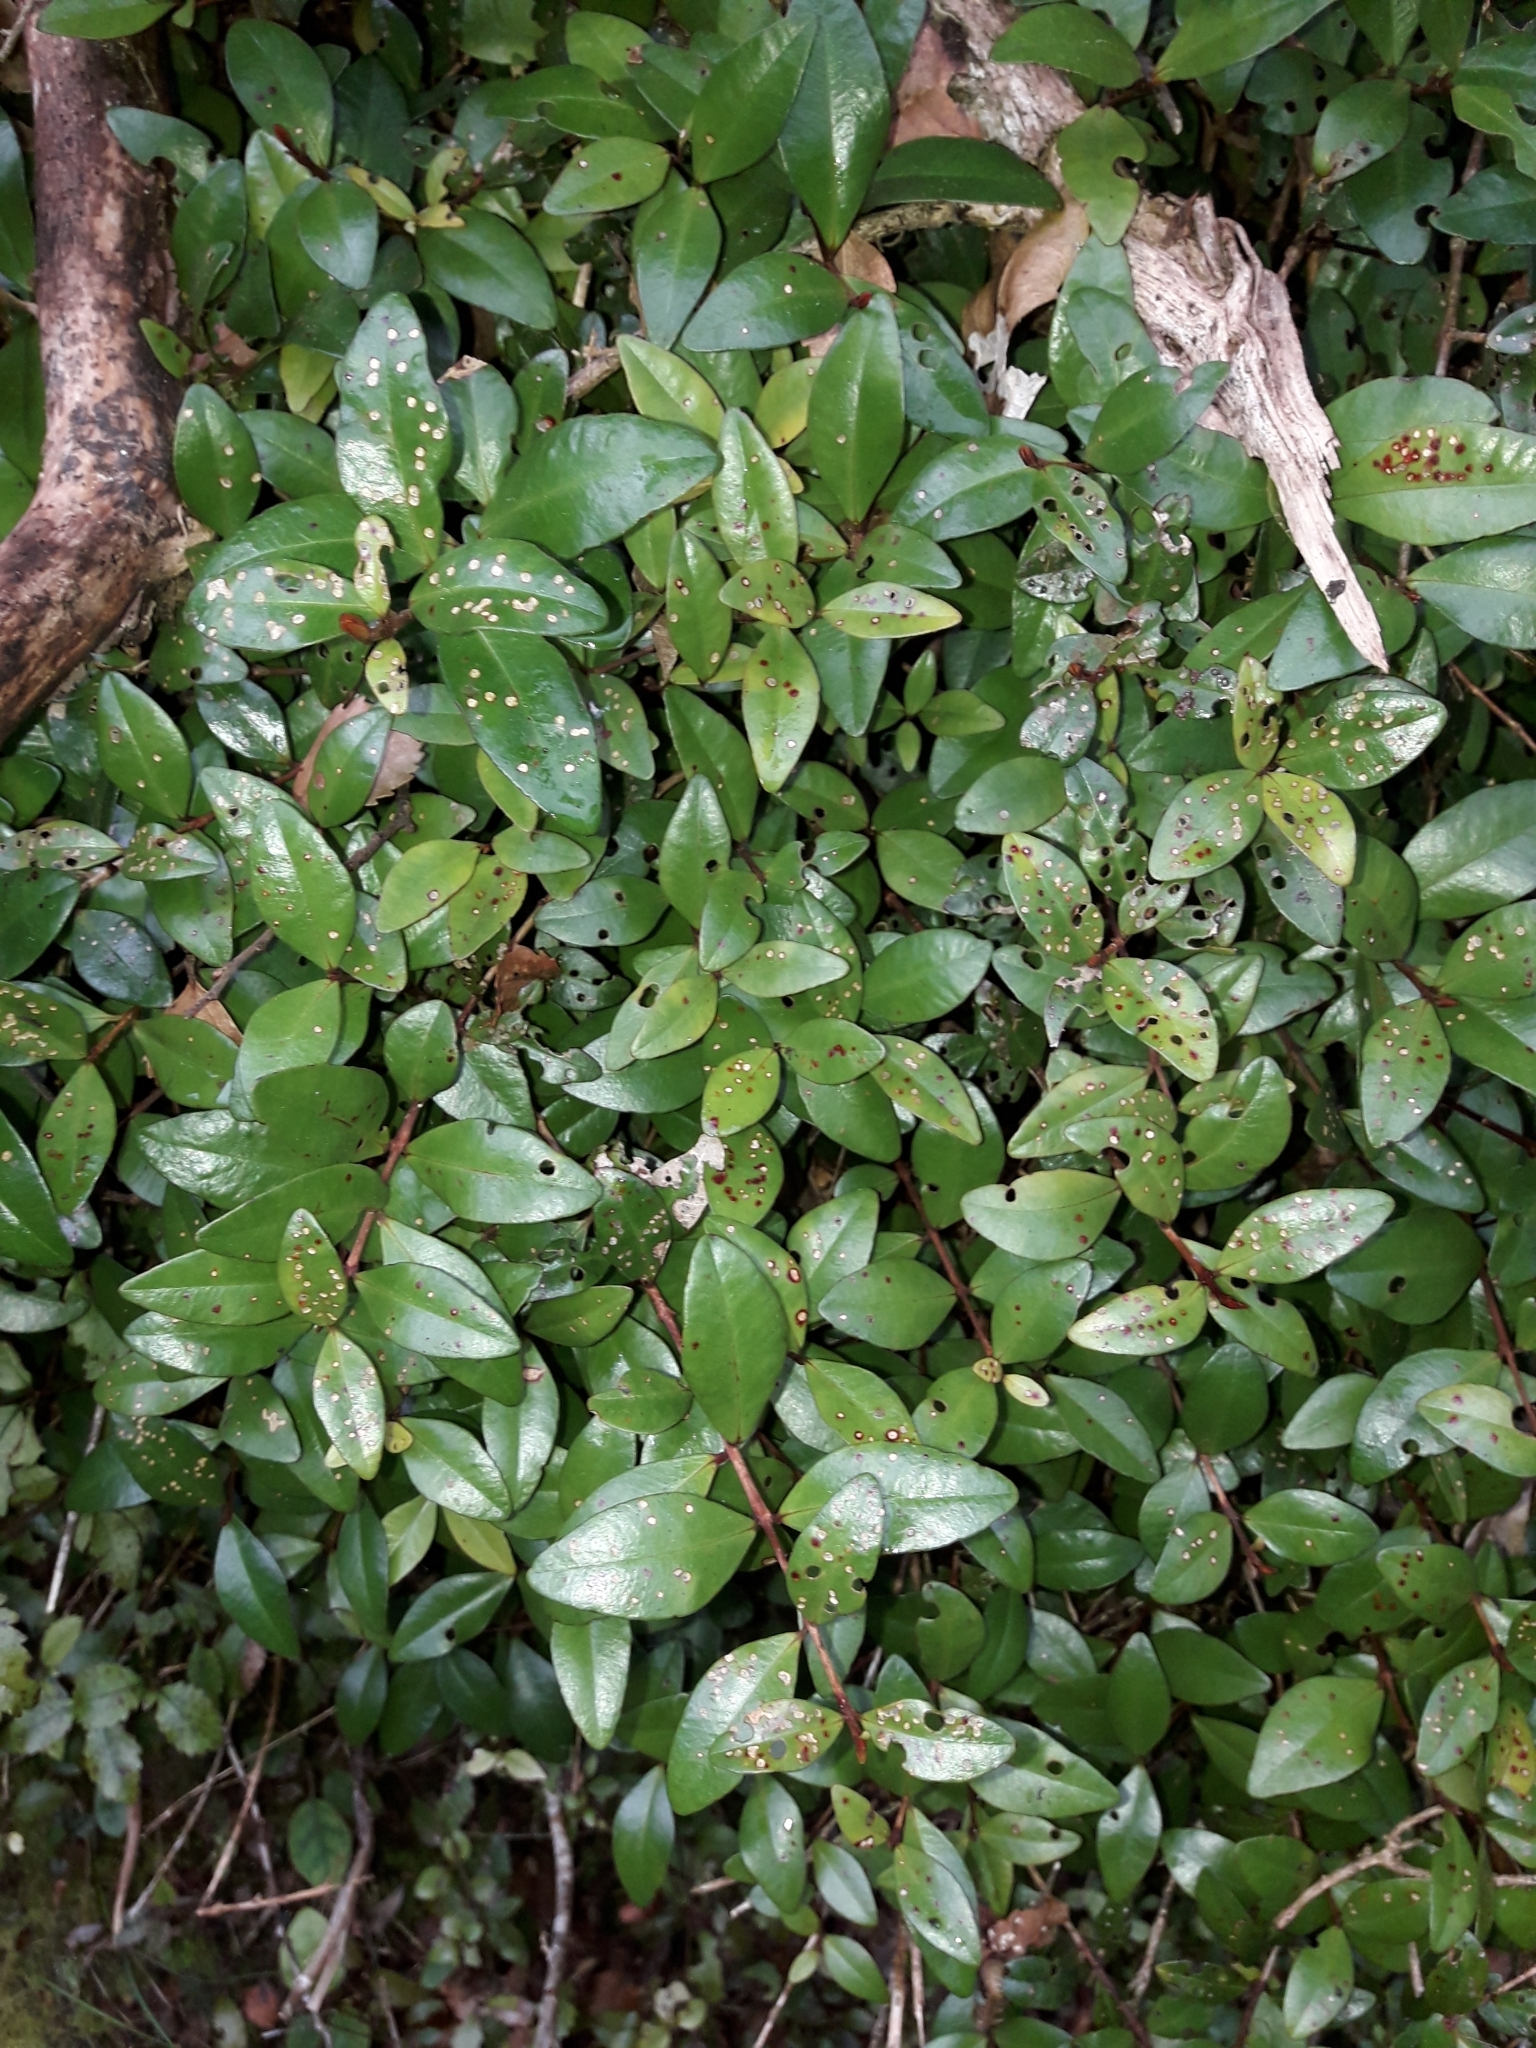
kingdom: Plantae
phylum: Tracheophyta
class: Magnoliopsida
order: Myrtales
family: Myrtaceae
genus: Metrosideros
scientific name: Metrosideros fulgens
